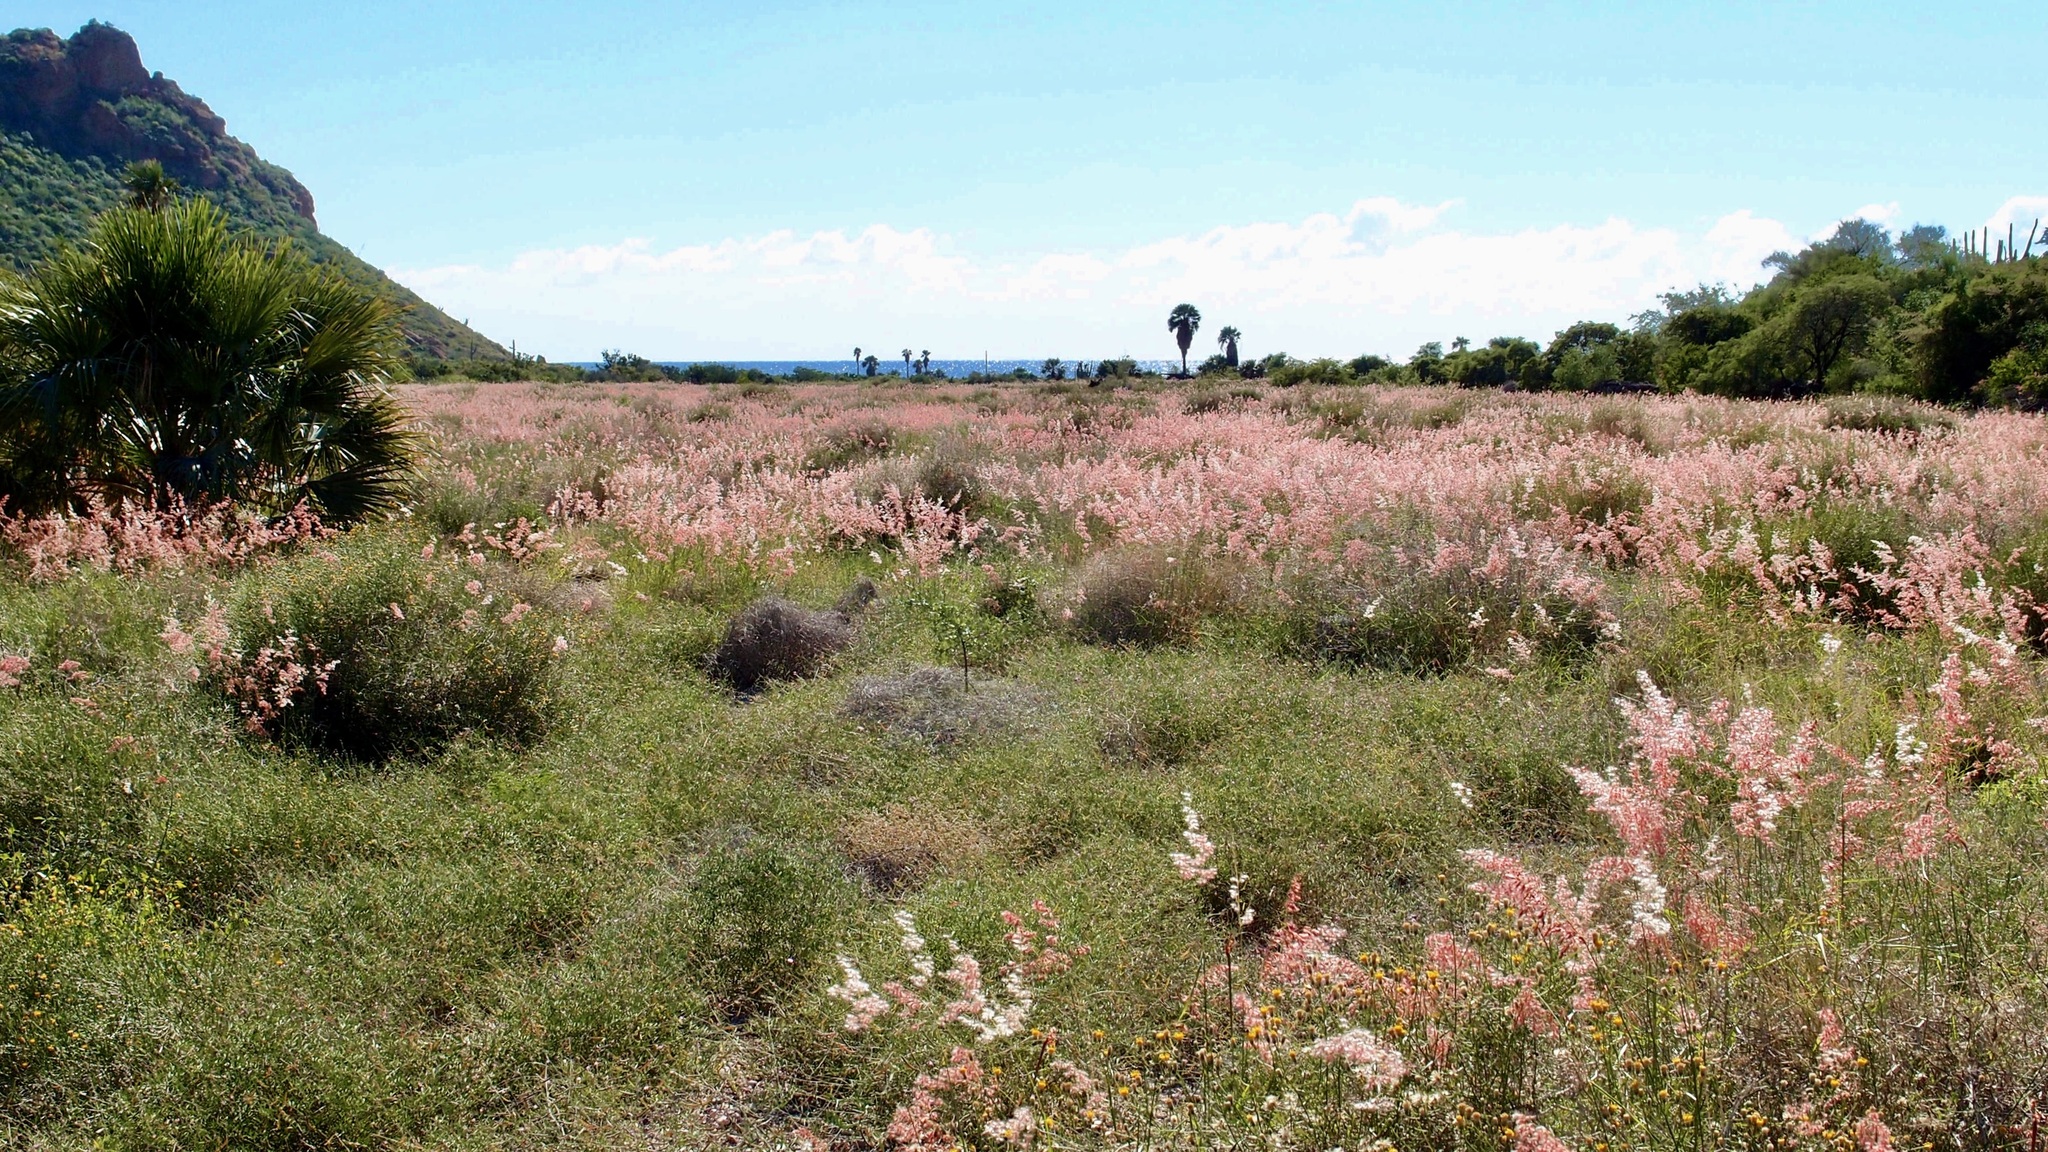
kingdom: Plantae
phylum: Tracheophyta
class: Liliopsida
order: Poales
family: Poaceae
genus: Melinis
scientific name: Melinis repens
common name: Rose natal grass
